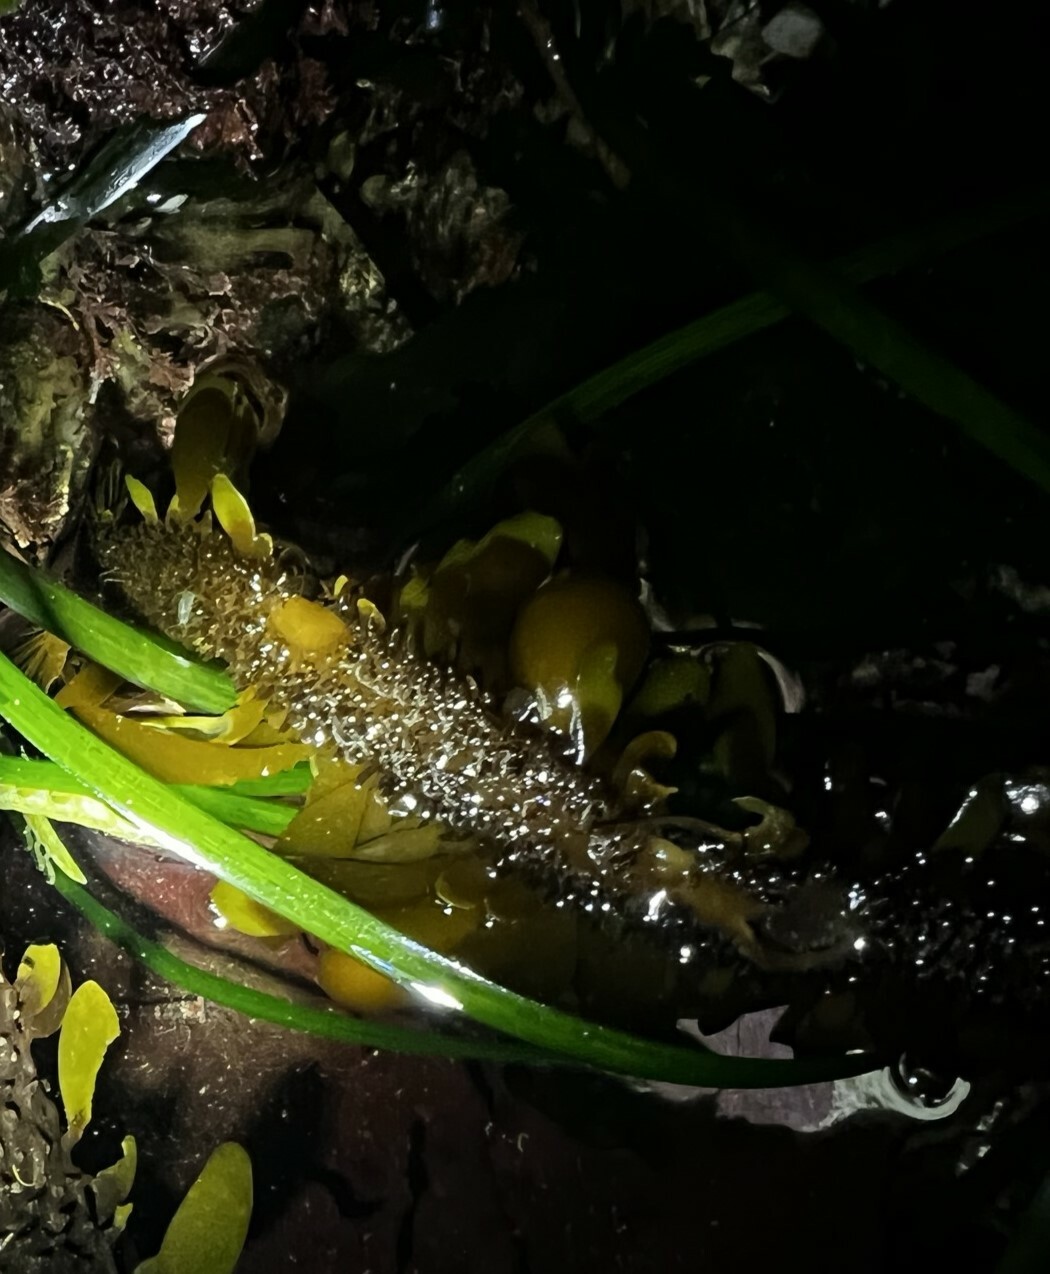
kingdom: Chromista
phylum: Ochrophyta
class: Phaeophyceae
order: Laminariales
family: Lessoniaceae
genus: Egregia
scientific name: Egregia menziesii
